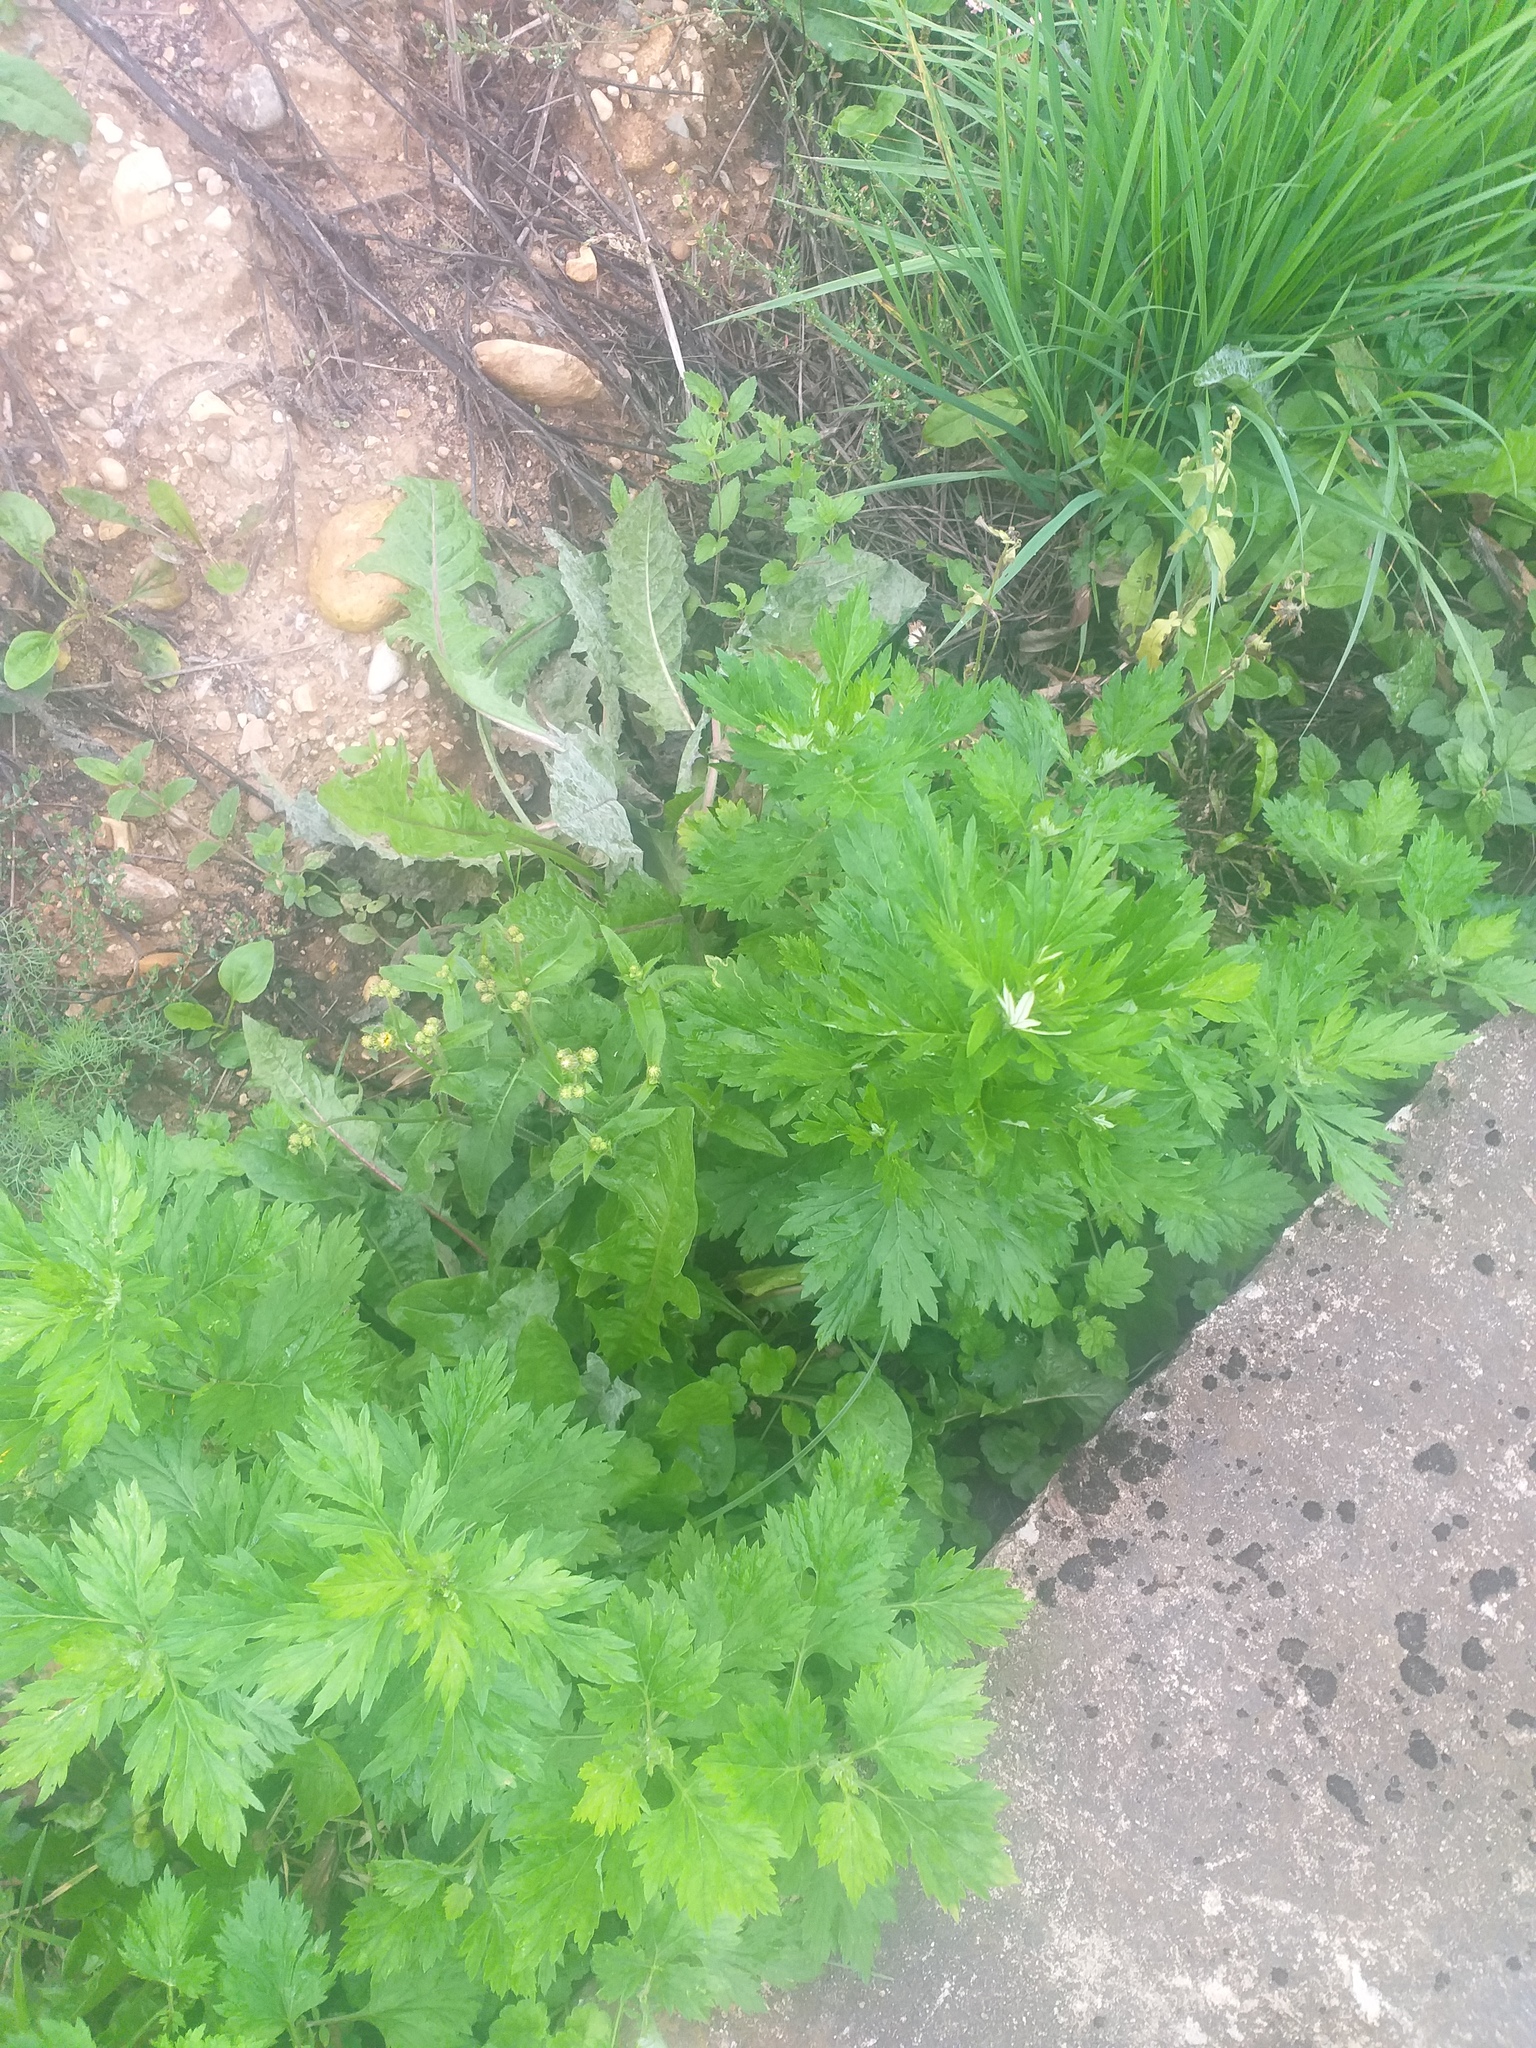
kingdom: Plantae
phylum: Tracheophyta
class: Magnoliopsida
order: Asterales
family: Asteraceae
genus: Picris
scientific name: Picris hieracioides
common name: Hawkweed oxtongue
